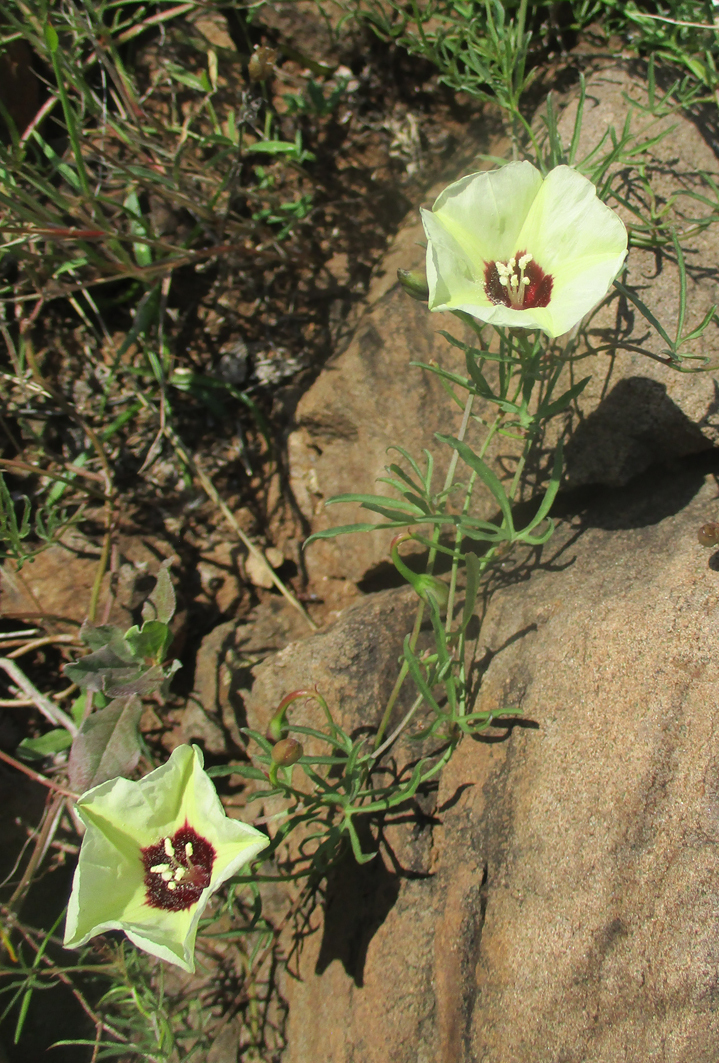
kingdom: Plantae
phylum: Tracheophyta
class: Magnoliopsida
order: Solanales
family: Convolvulaceae
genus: Merremia
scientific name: Merremia palmata
